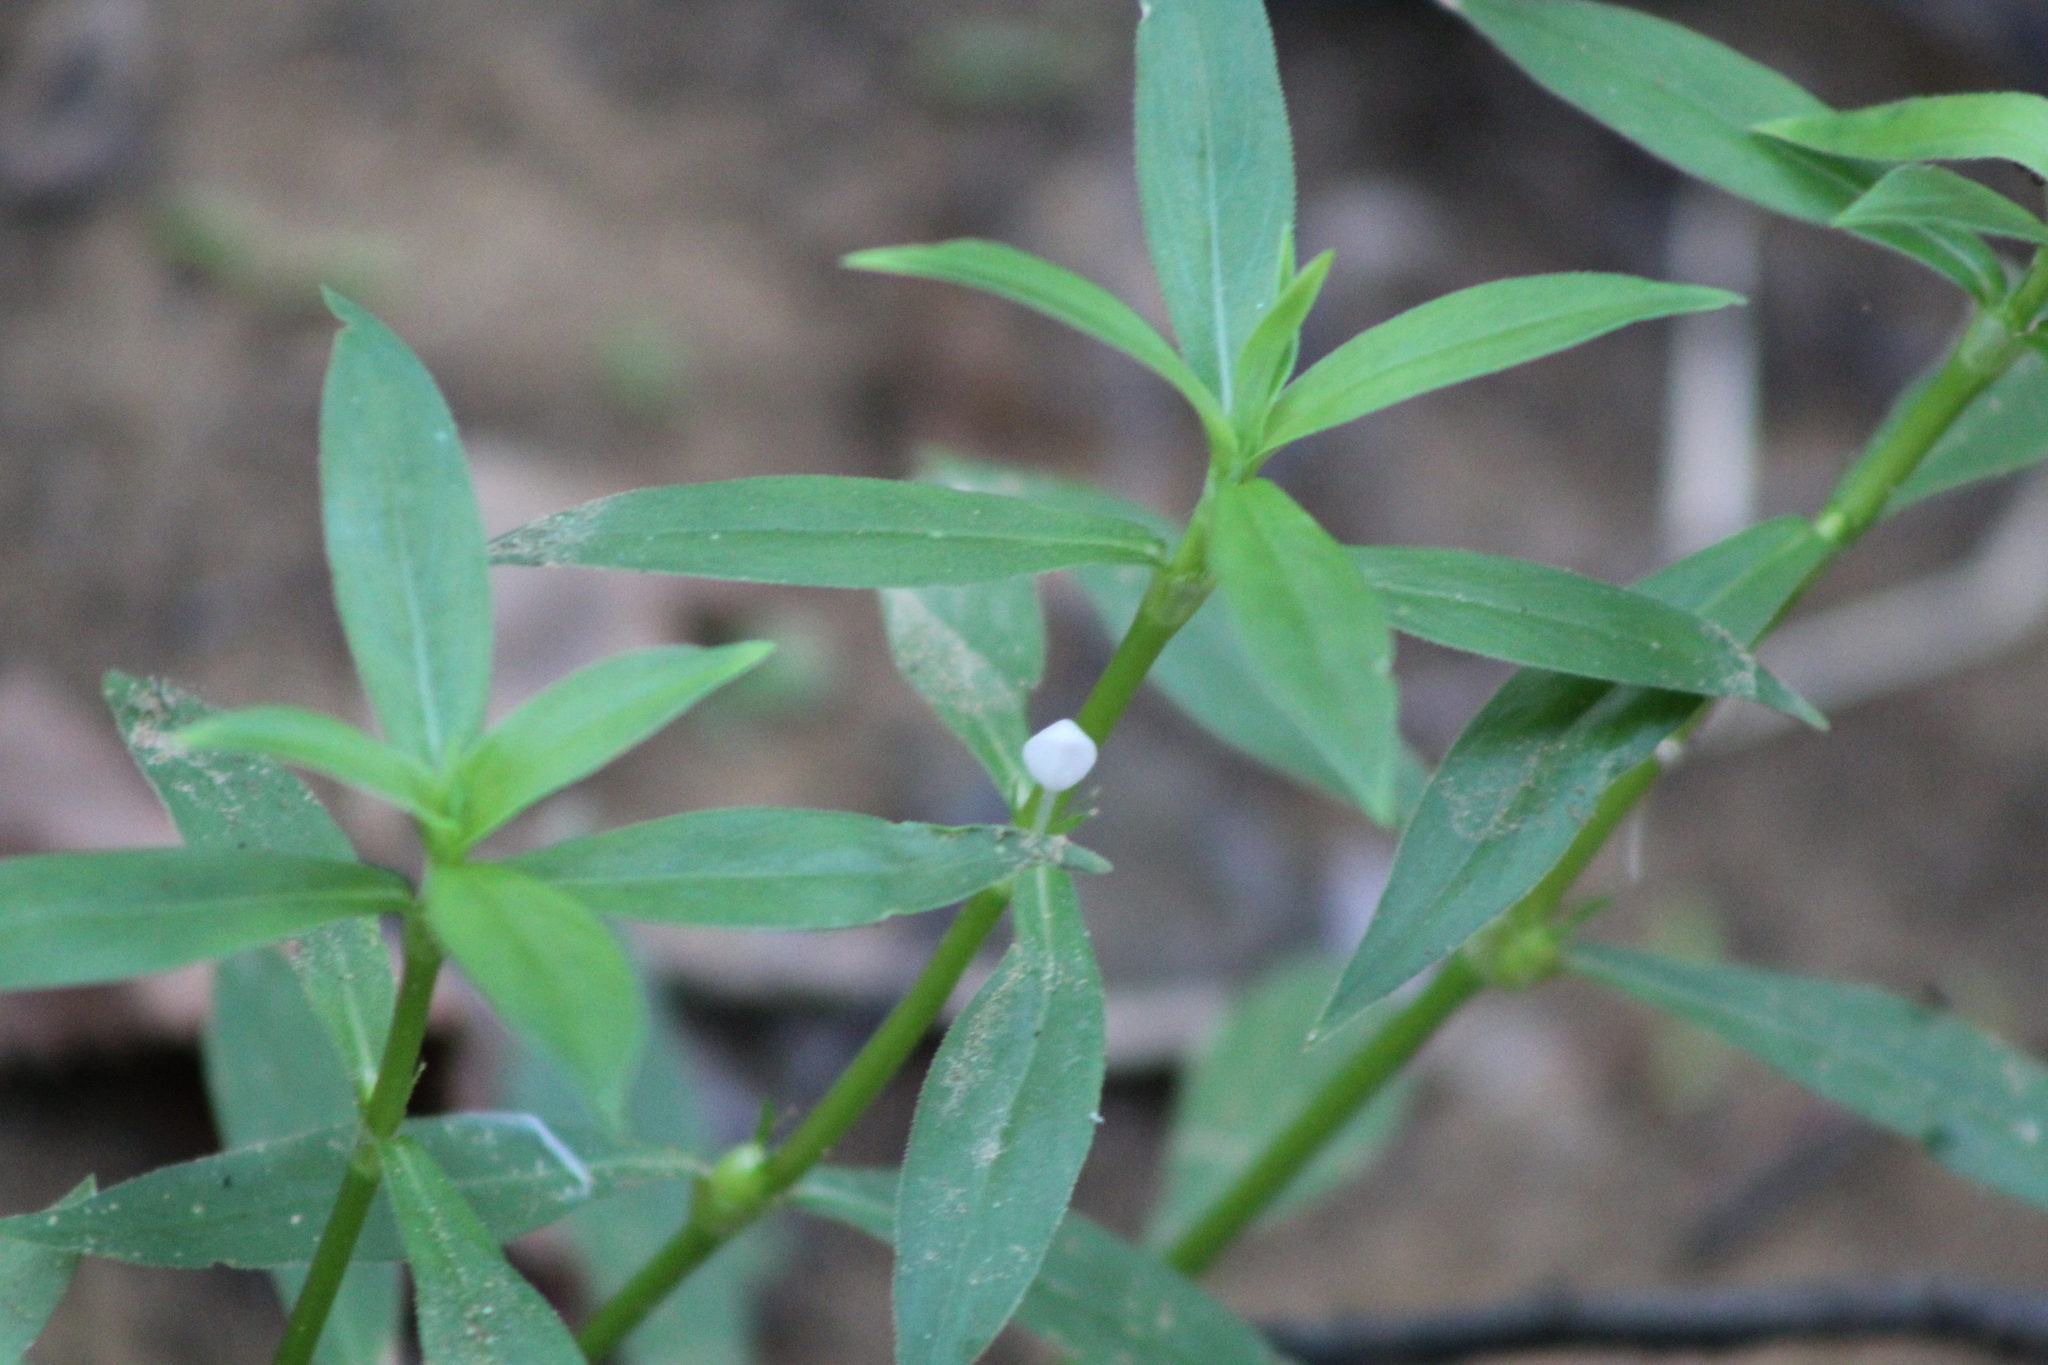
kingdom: Plantae
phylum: Tracheophyta
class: Magnoliopsida
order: Gentianales
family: Rubiaceae
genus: Diodia
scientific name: Diodia virginiana
